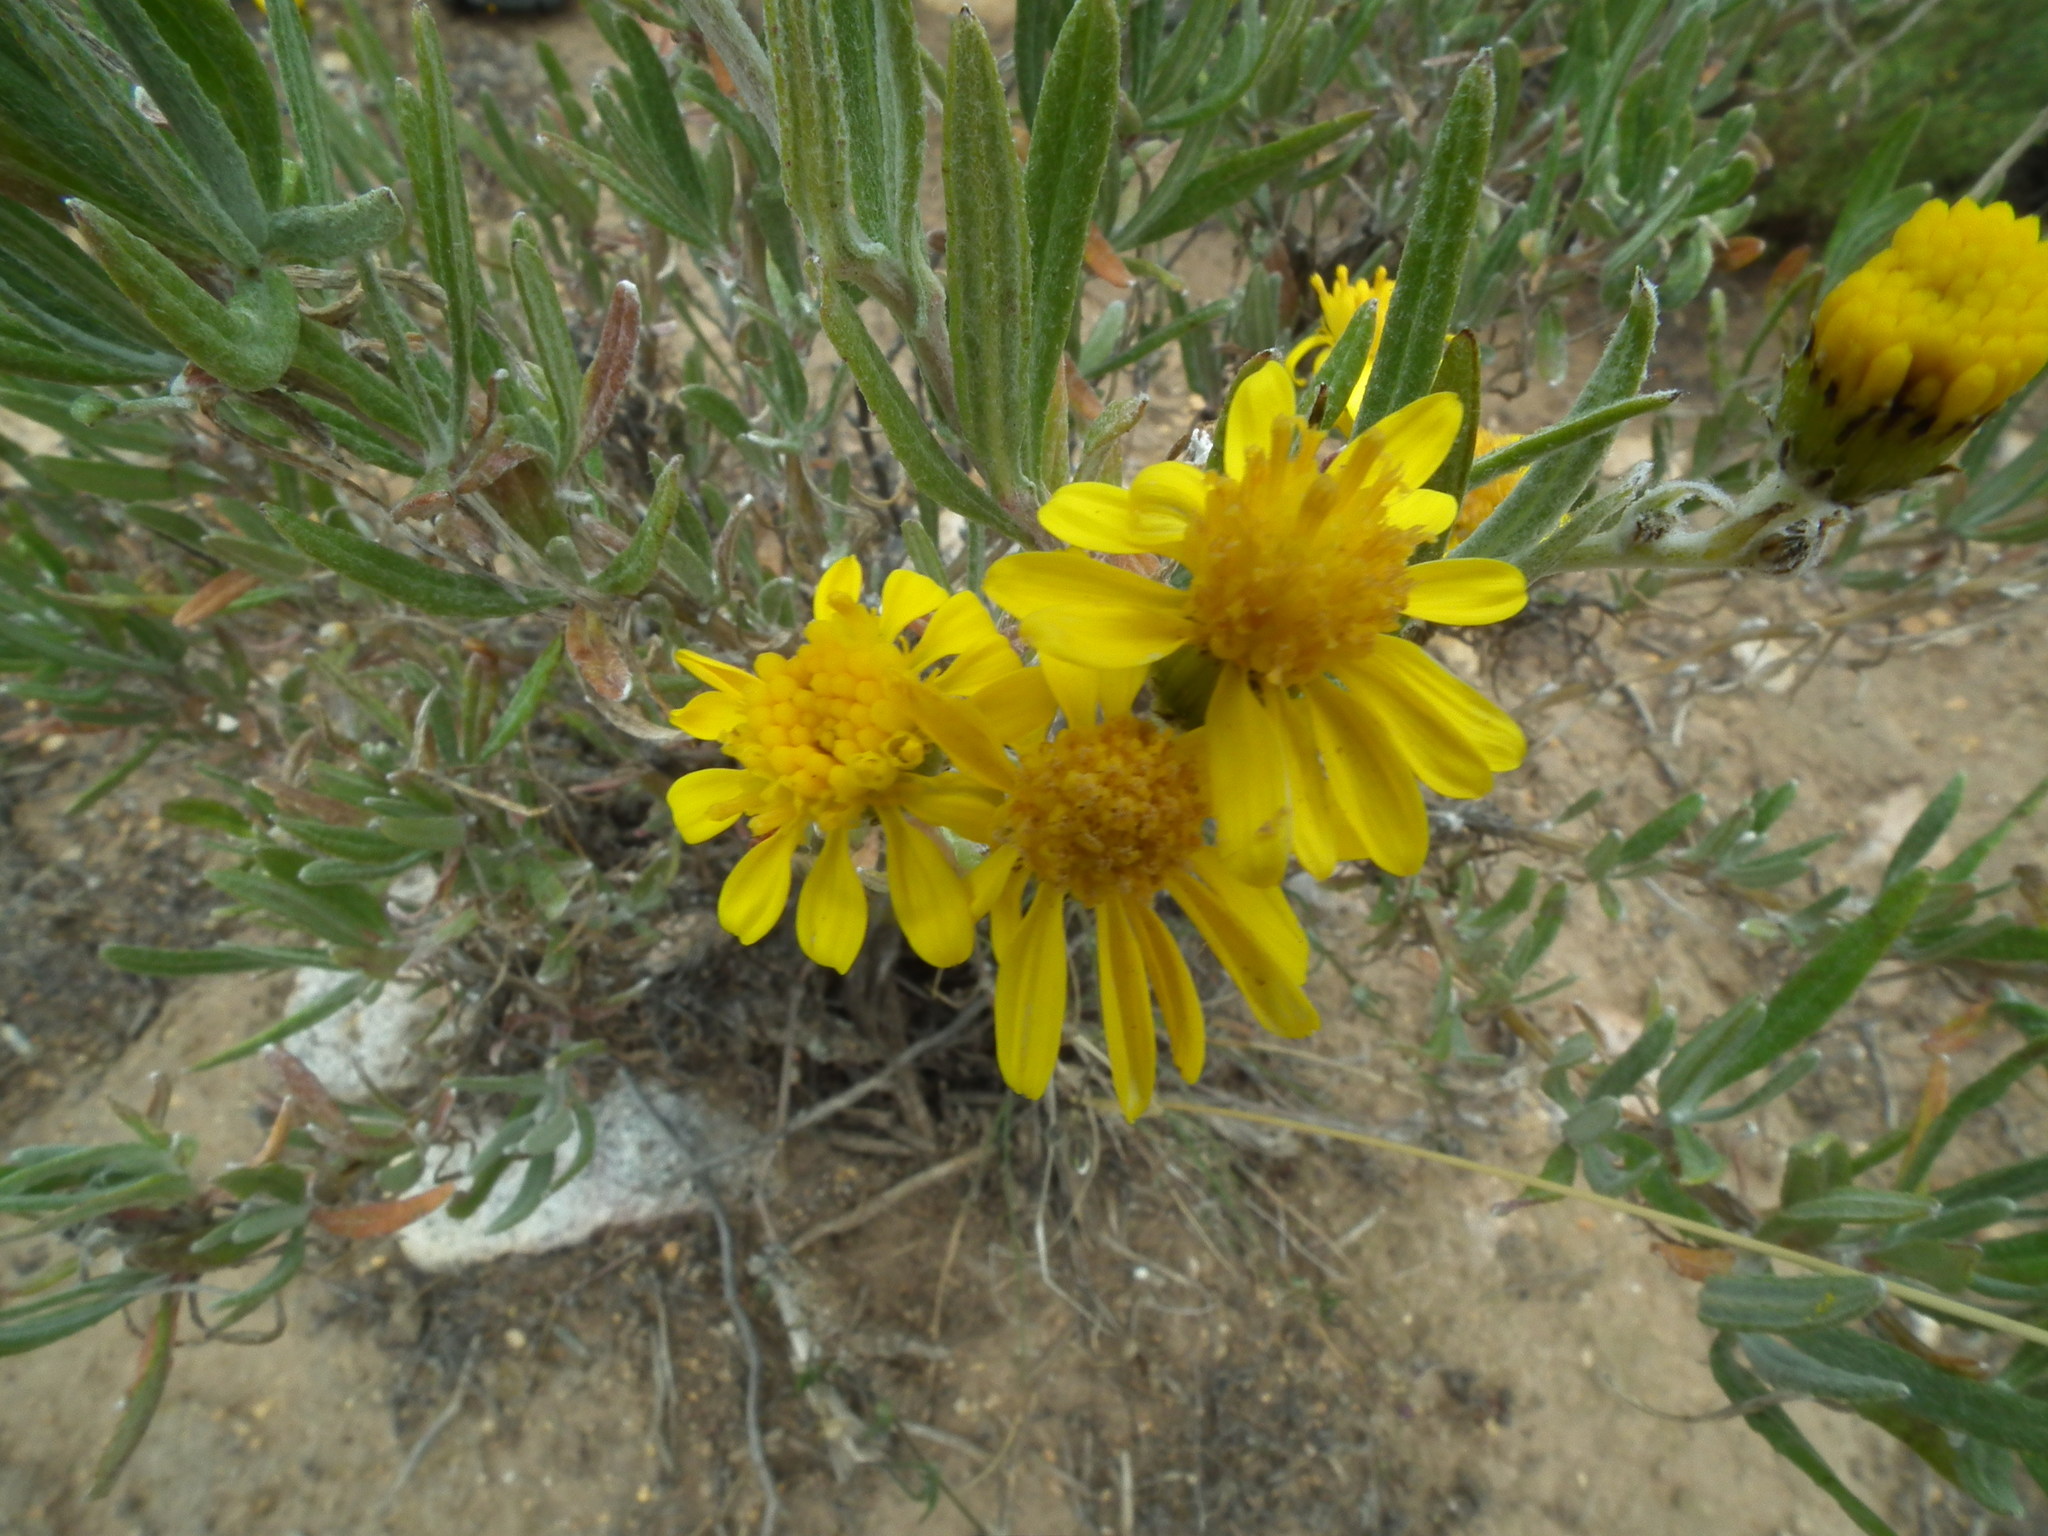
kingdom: Plantae
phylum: Tracheophyta
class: Magnoliopsida
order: Asterales
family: Asteraceae
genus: Senecio
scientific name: Senecio behnii
